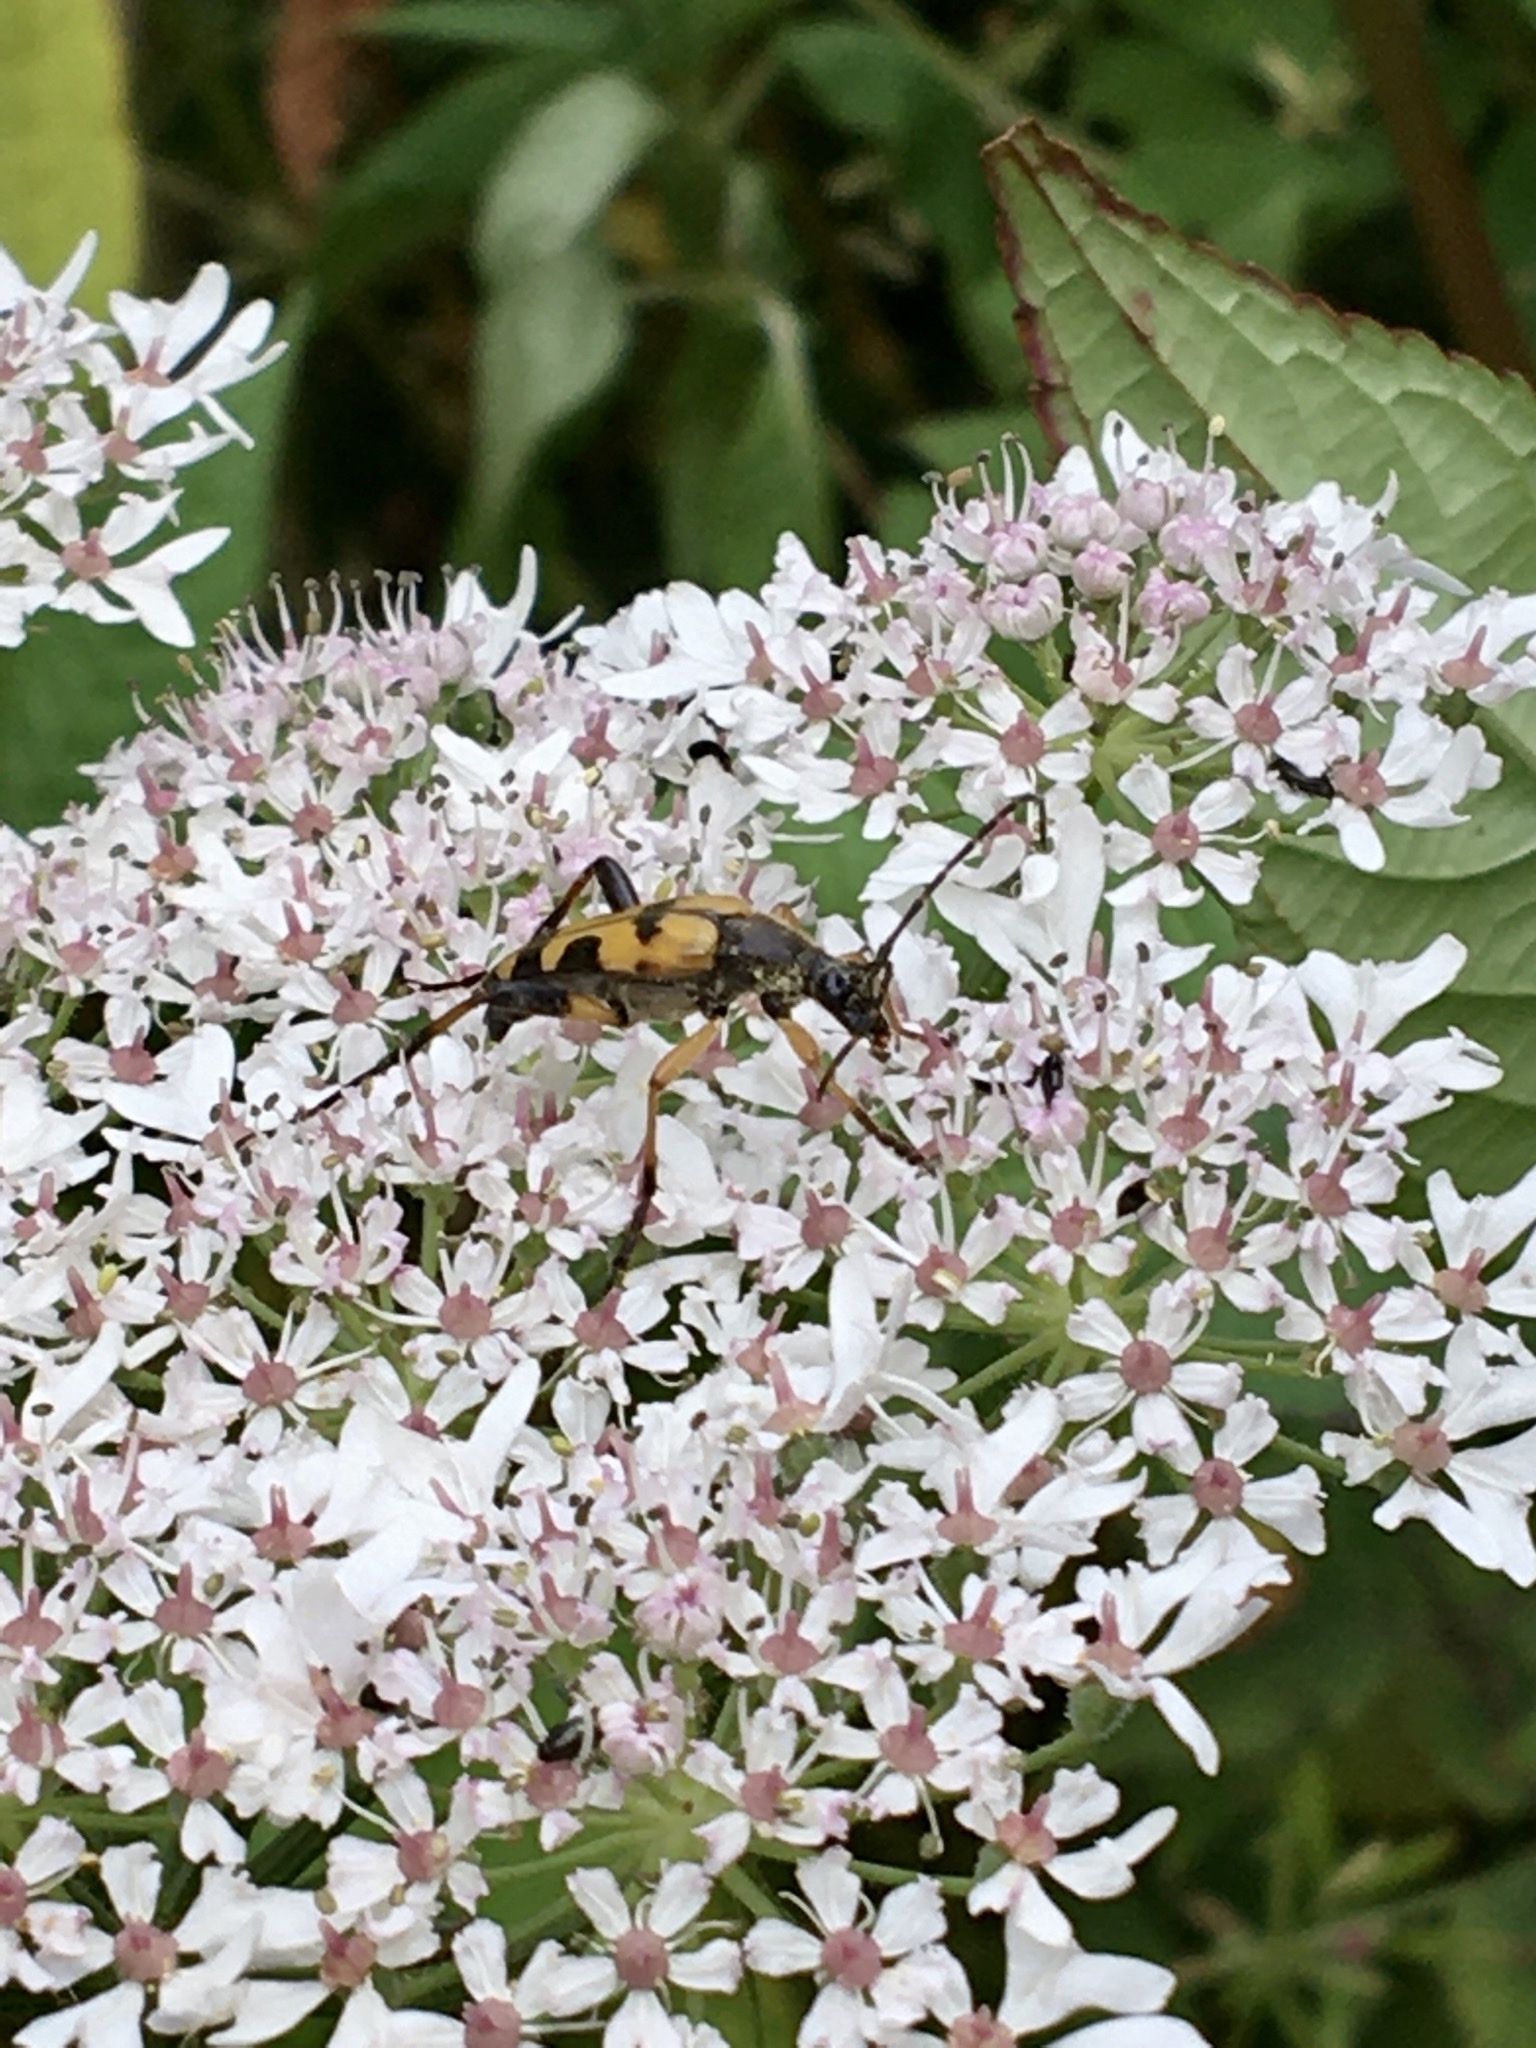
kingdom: Animalia
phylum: Arthropoda
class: Insecta
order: Coleoptera
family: Cerambycidae
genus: Rutpela
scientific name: Rutpela maculata
